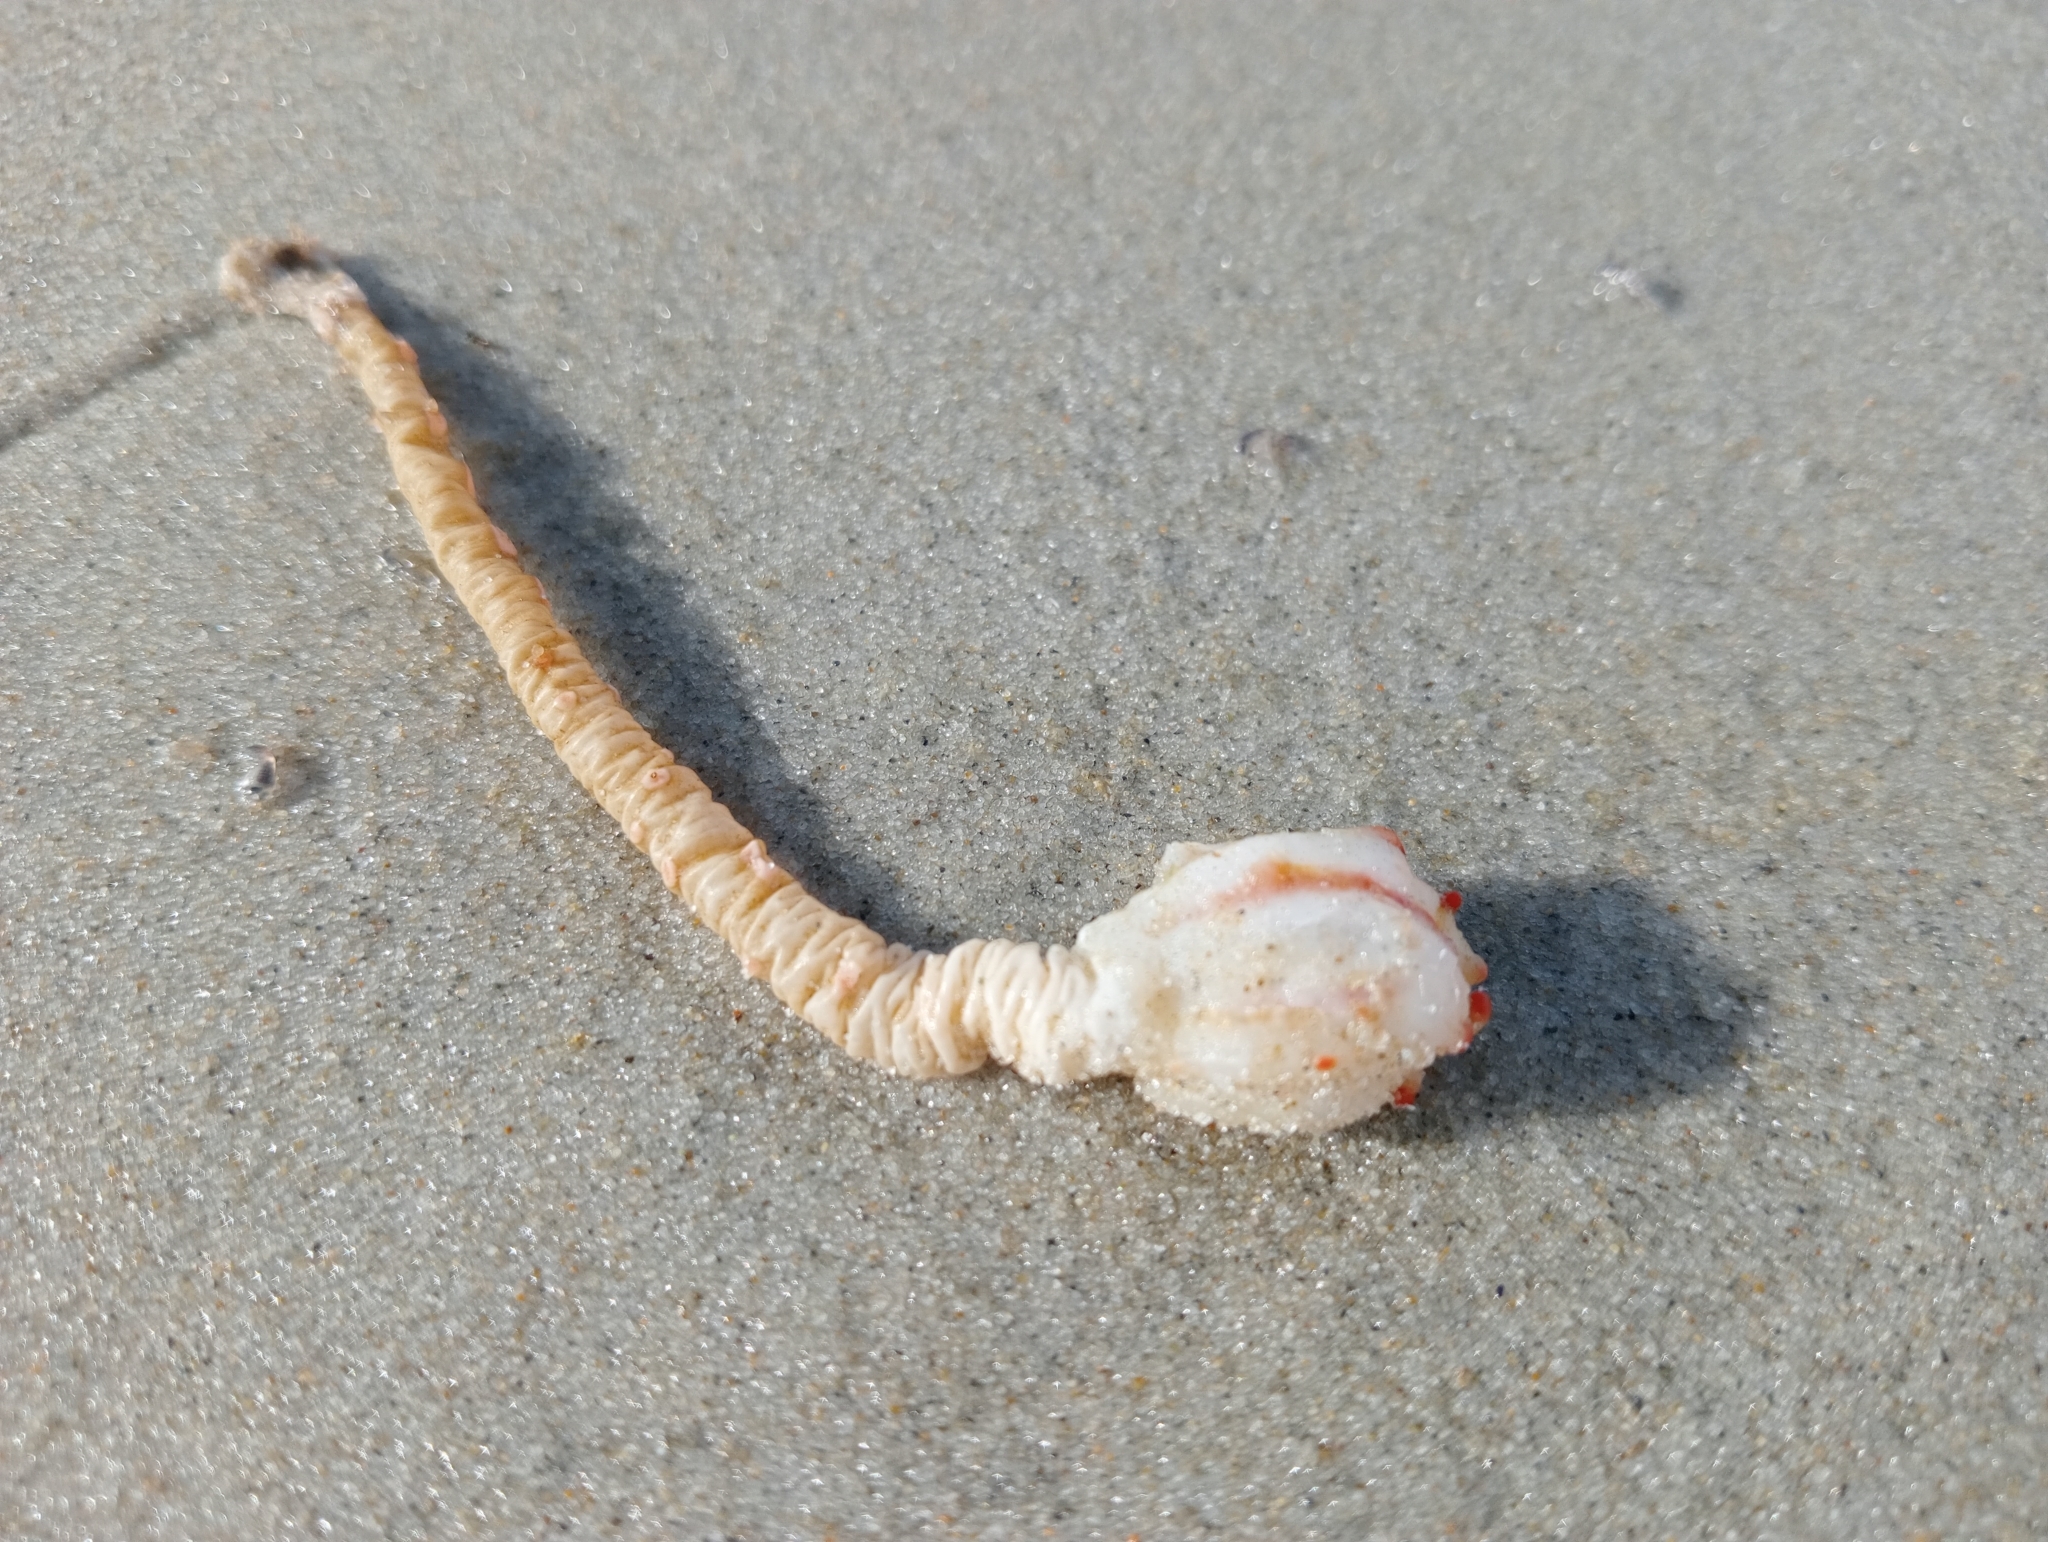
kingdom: Animalia
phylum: Chordata
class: Ascidiacea
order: Stolidobranchia
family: Pyuridae
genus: Pyura
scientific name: Pyura pachydermatina
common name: Sea tulip
